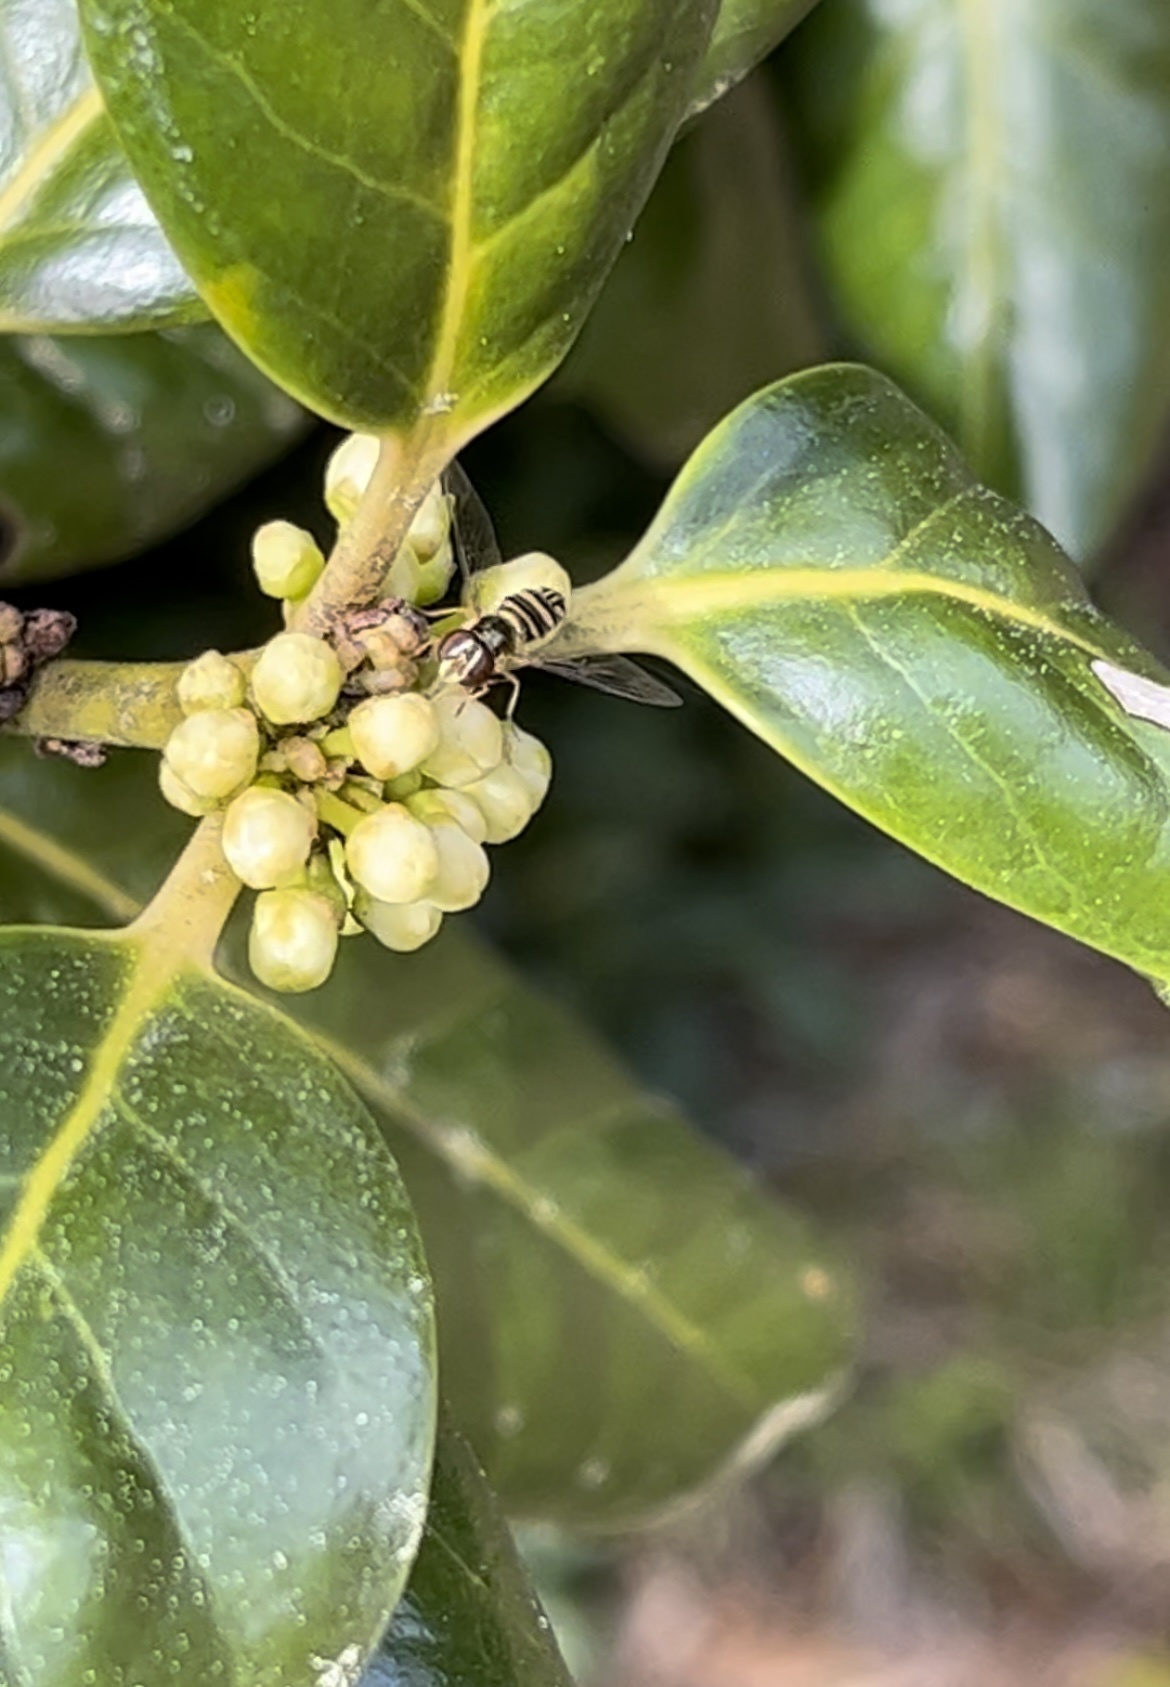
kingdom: Animalia
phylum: Arthropoda
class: Insecta
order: Diptera
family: Syrphidae
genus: Allograpta
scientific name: Allograpta obliqua
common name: Common oblique syrphid
